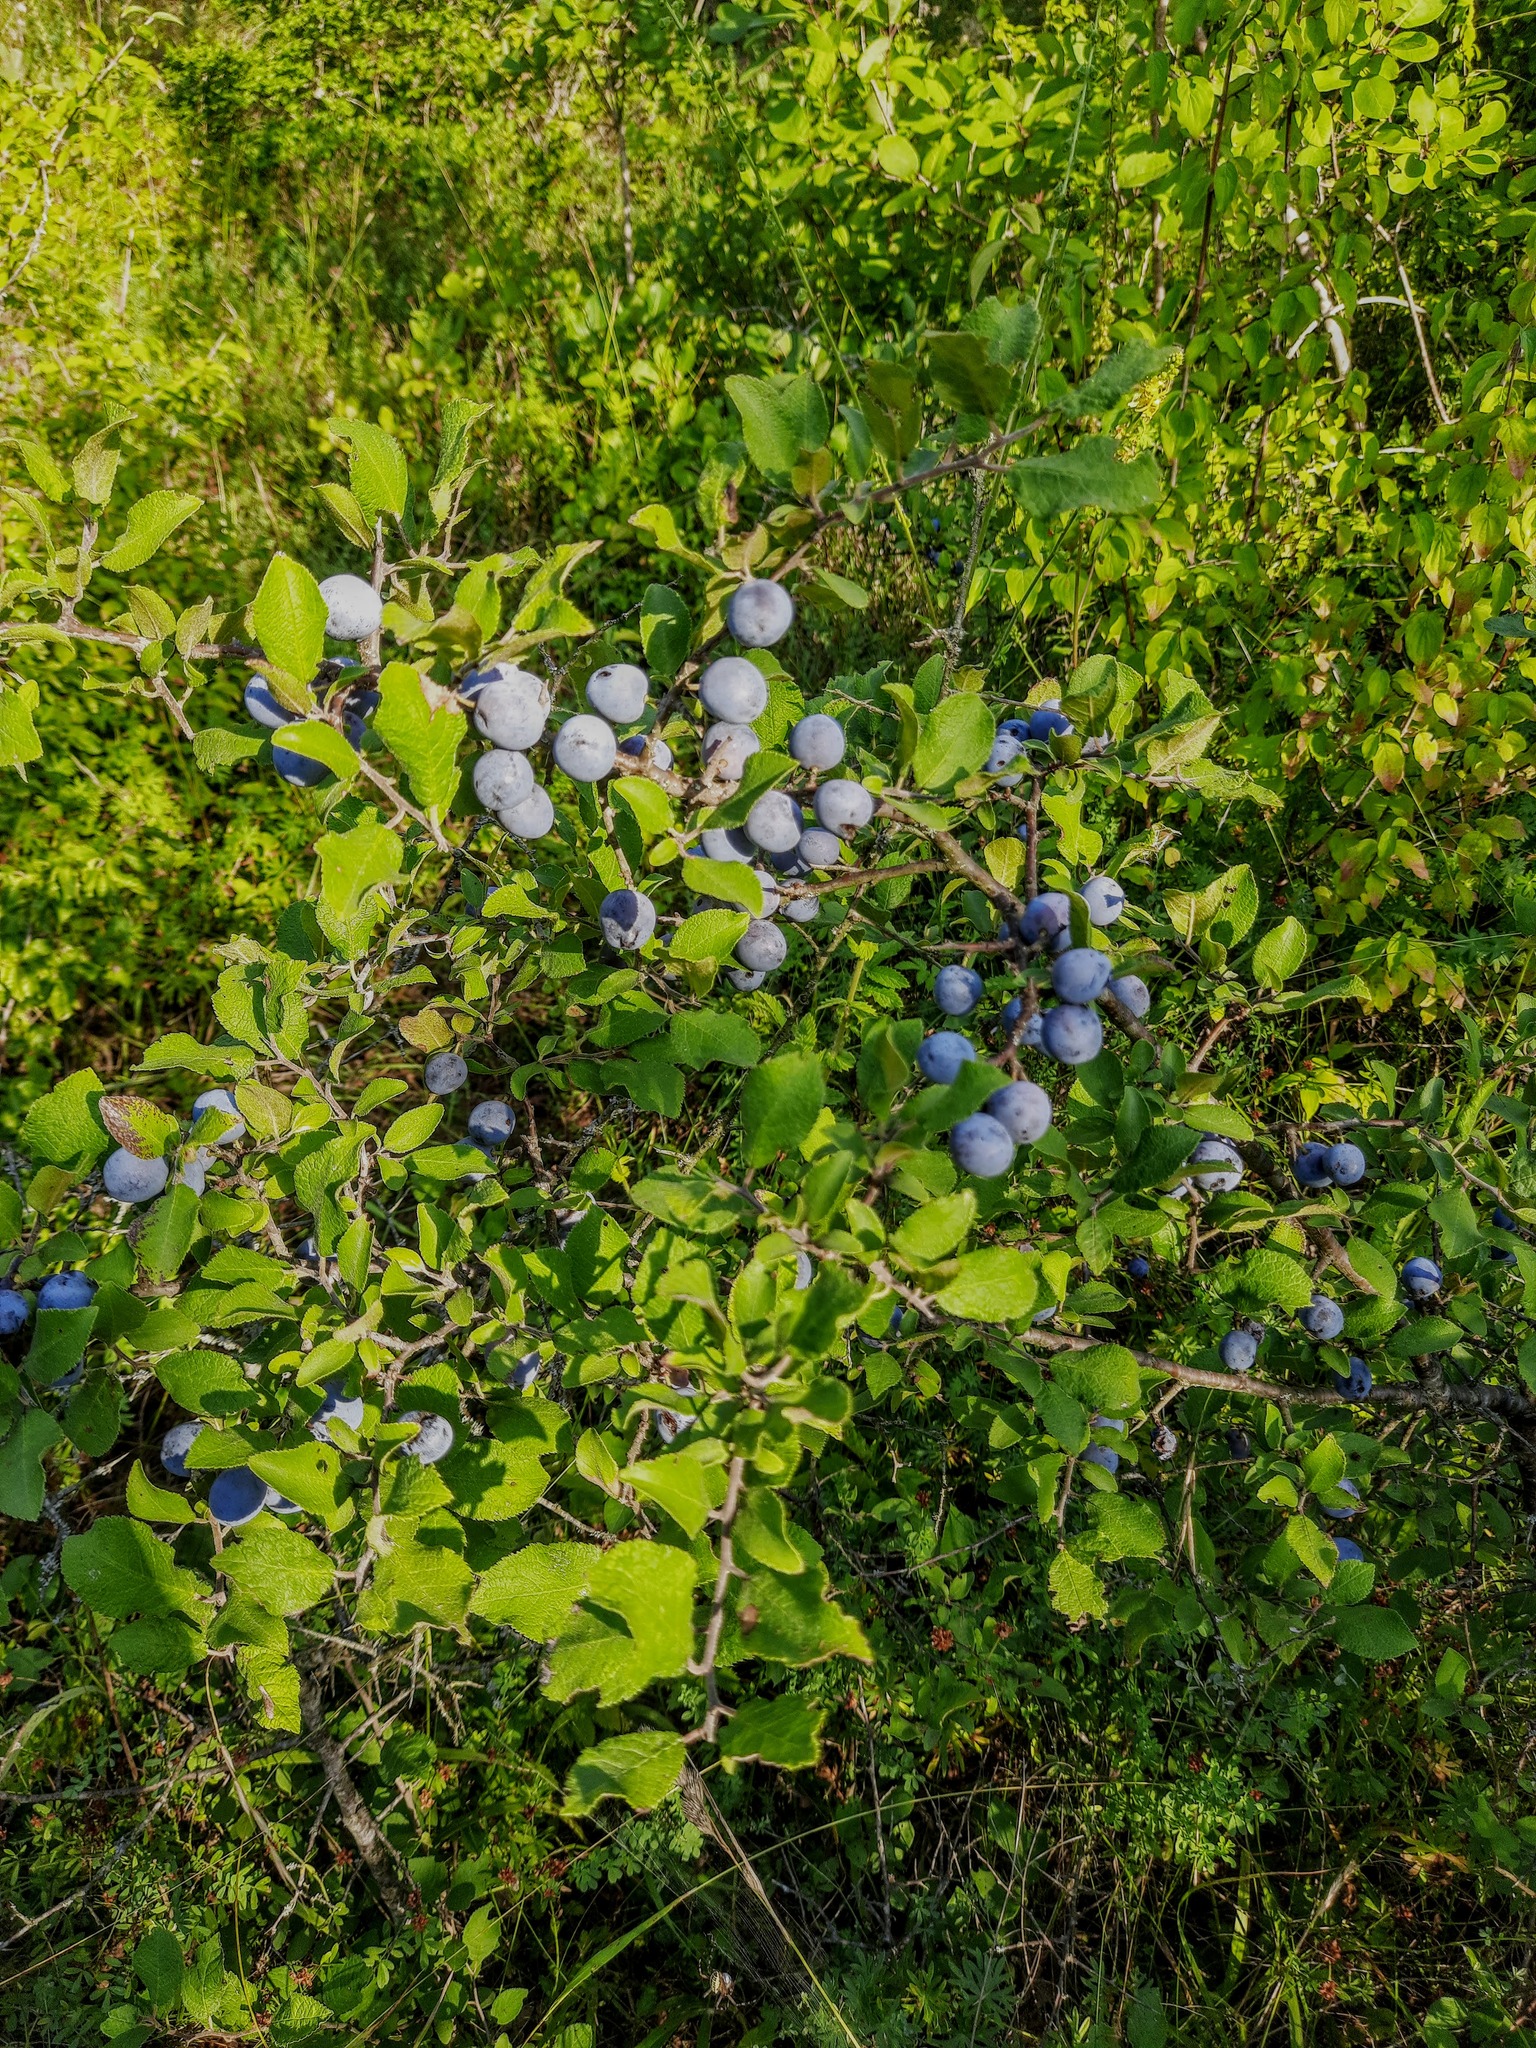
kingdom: Plantae
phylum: Tracheophyta
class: Magnoliopsida
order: Rosales
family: Rosaceae
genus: Prunus
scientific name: Prunus spinosa
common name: Blackthorn
